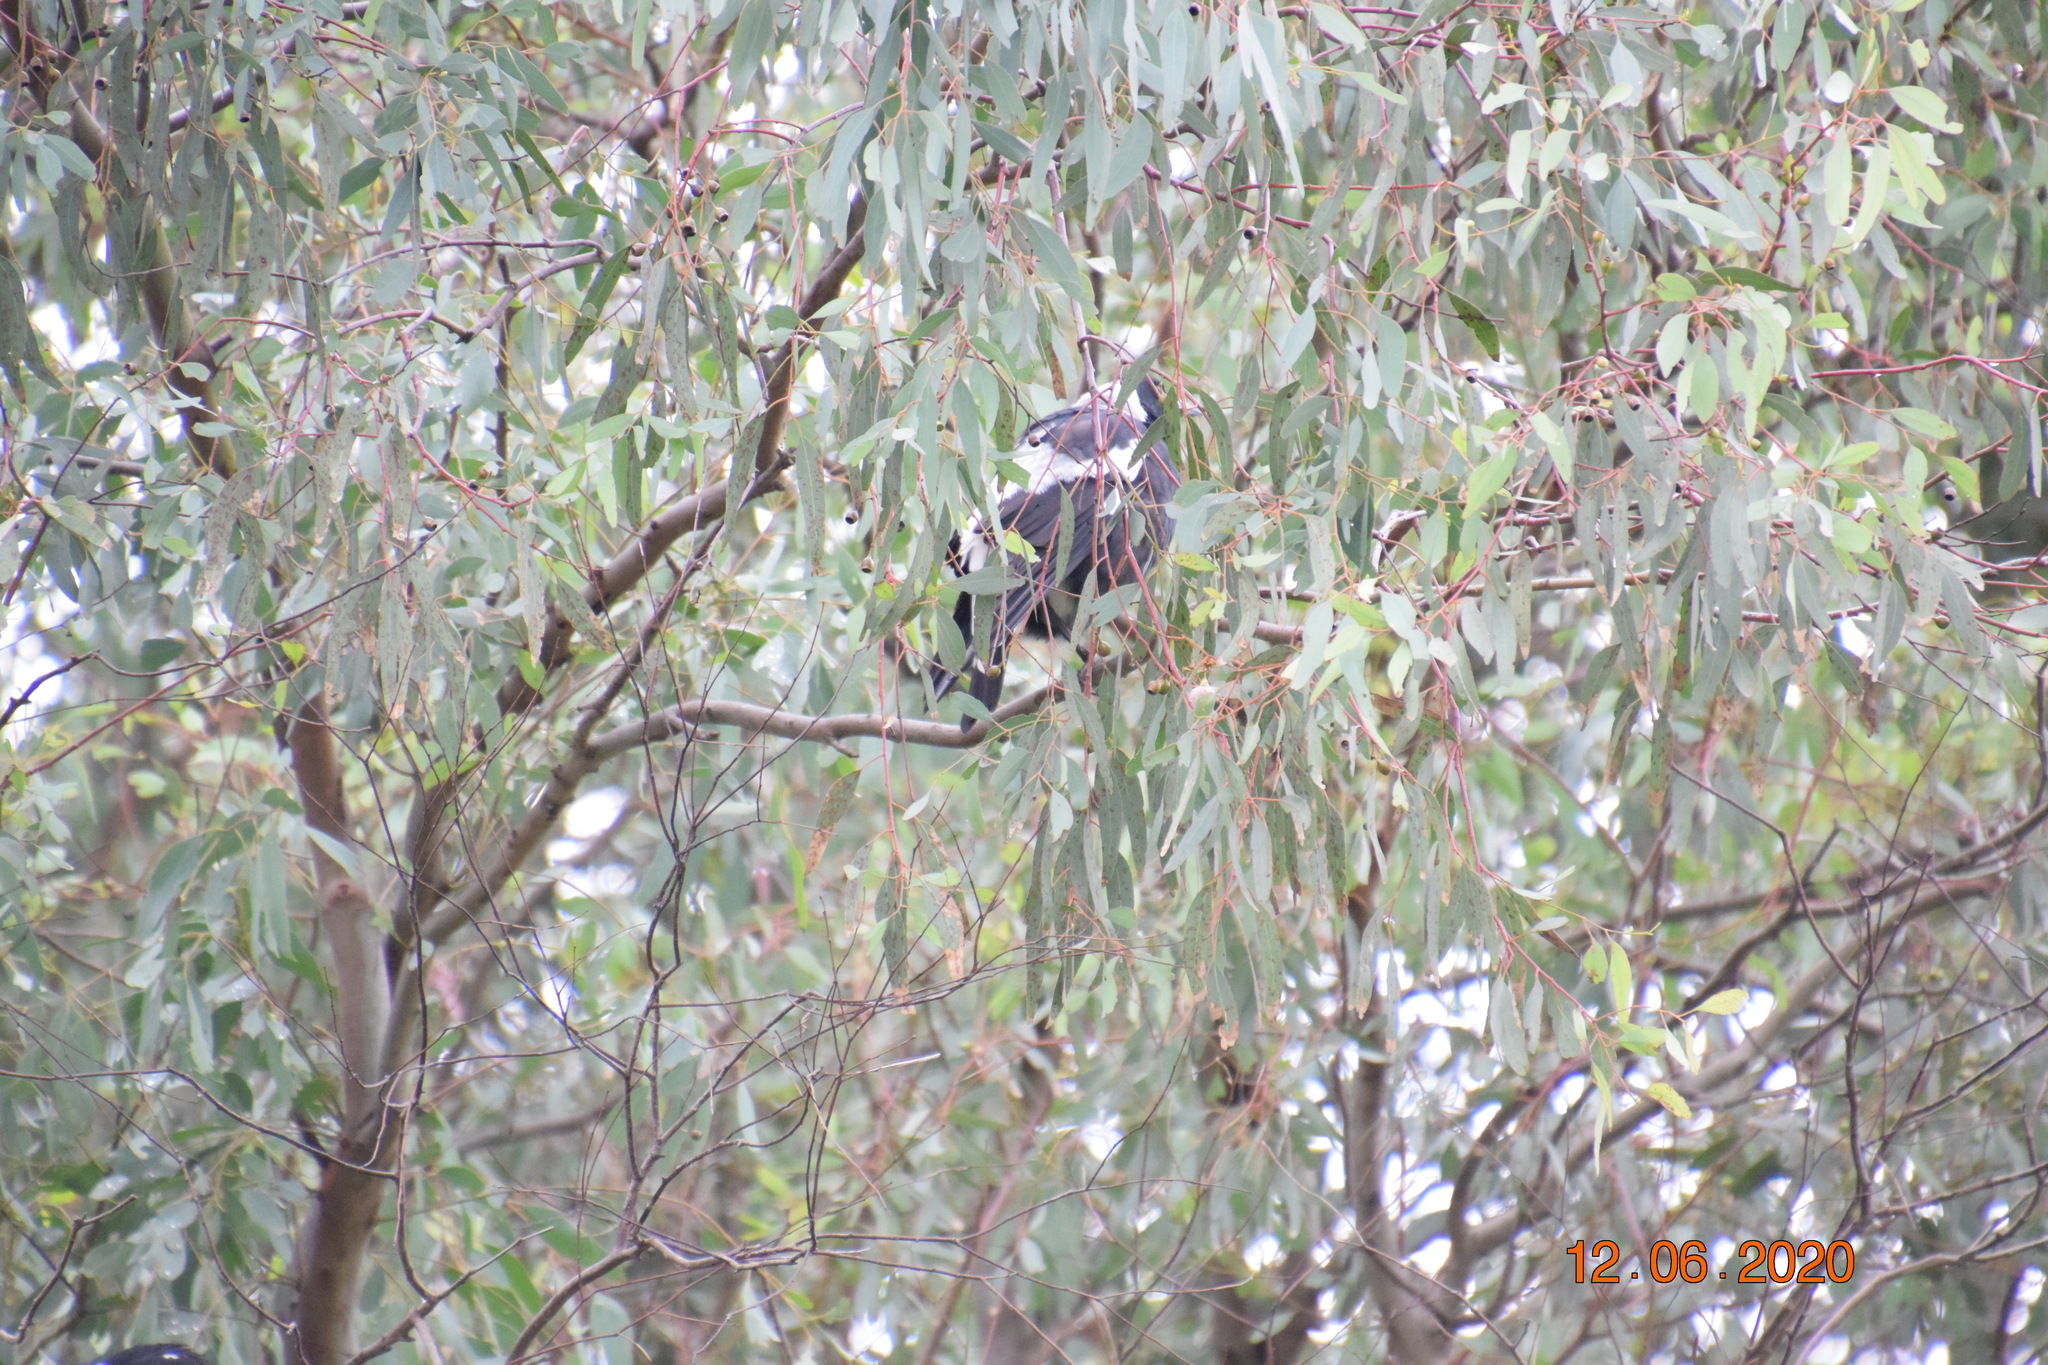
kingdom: Animalia
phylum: Chordata
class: Aves
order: Passeriformes
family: Cracticidae
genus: Gymnorhina
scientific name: Gymnorhina tibicen
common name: Australian magpie
